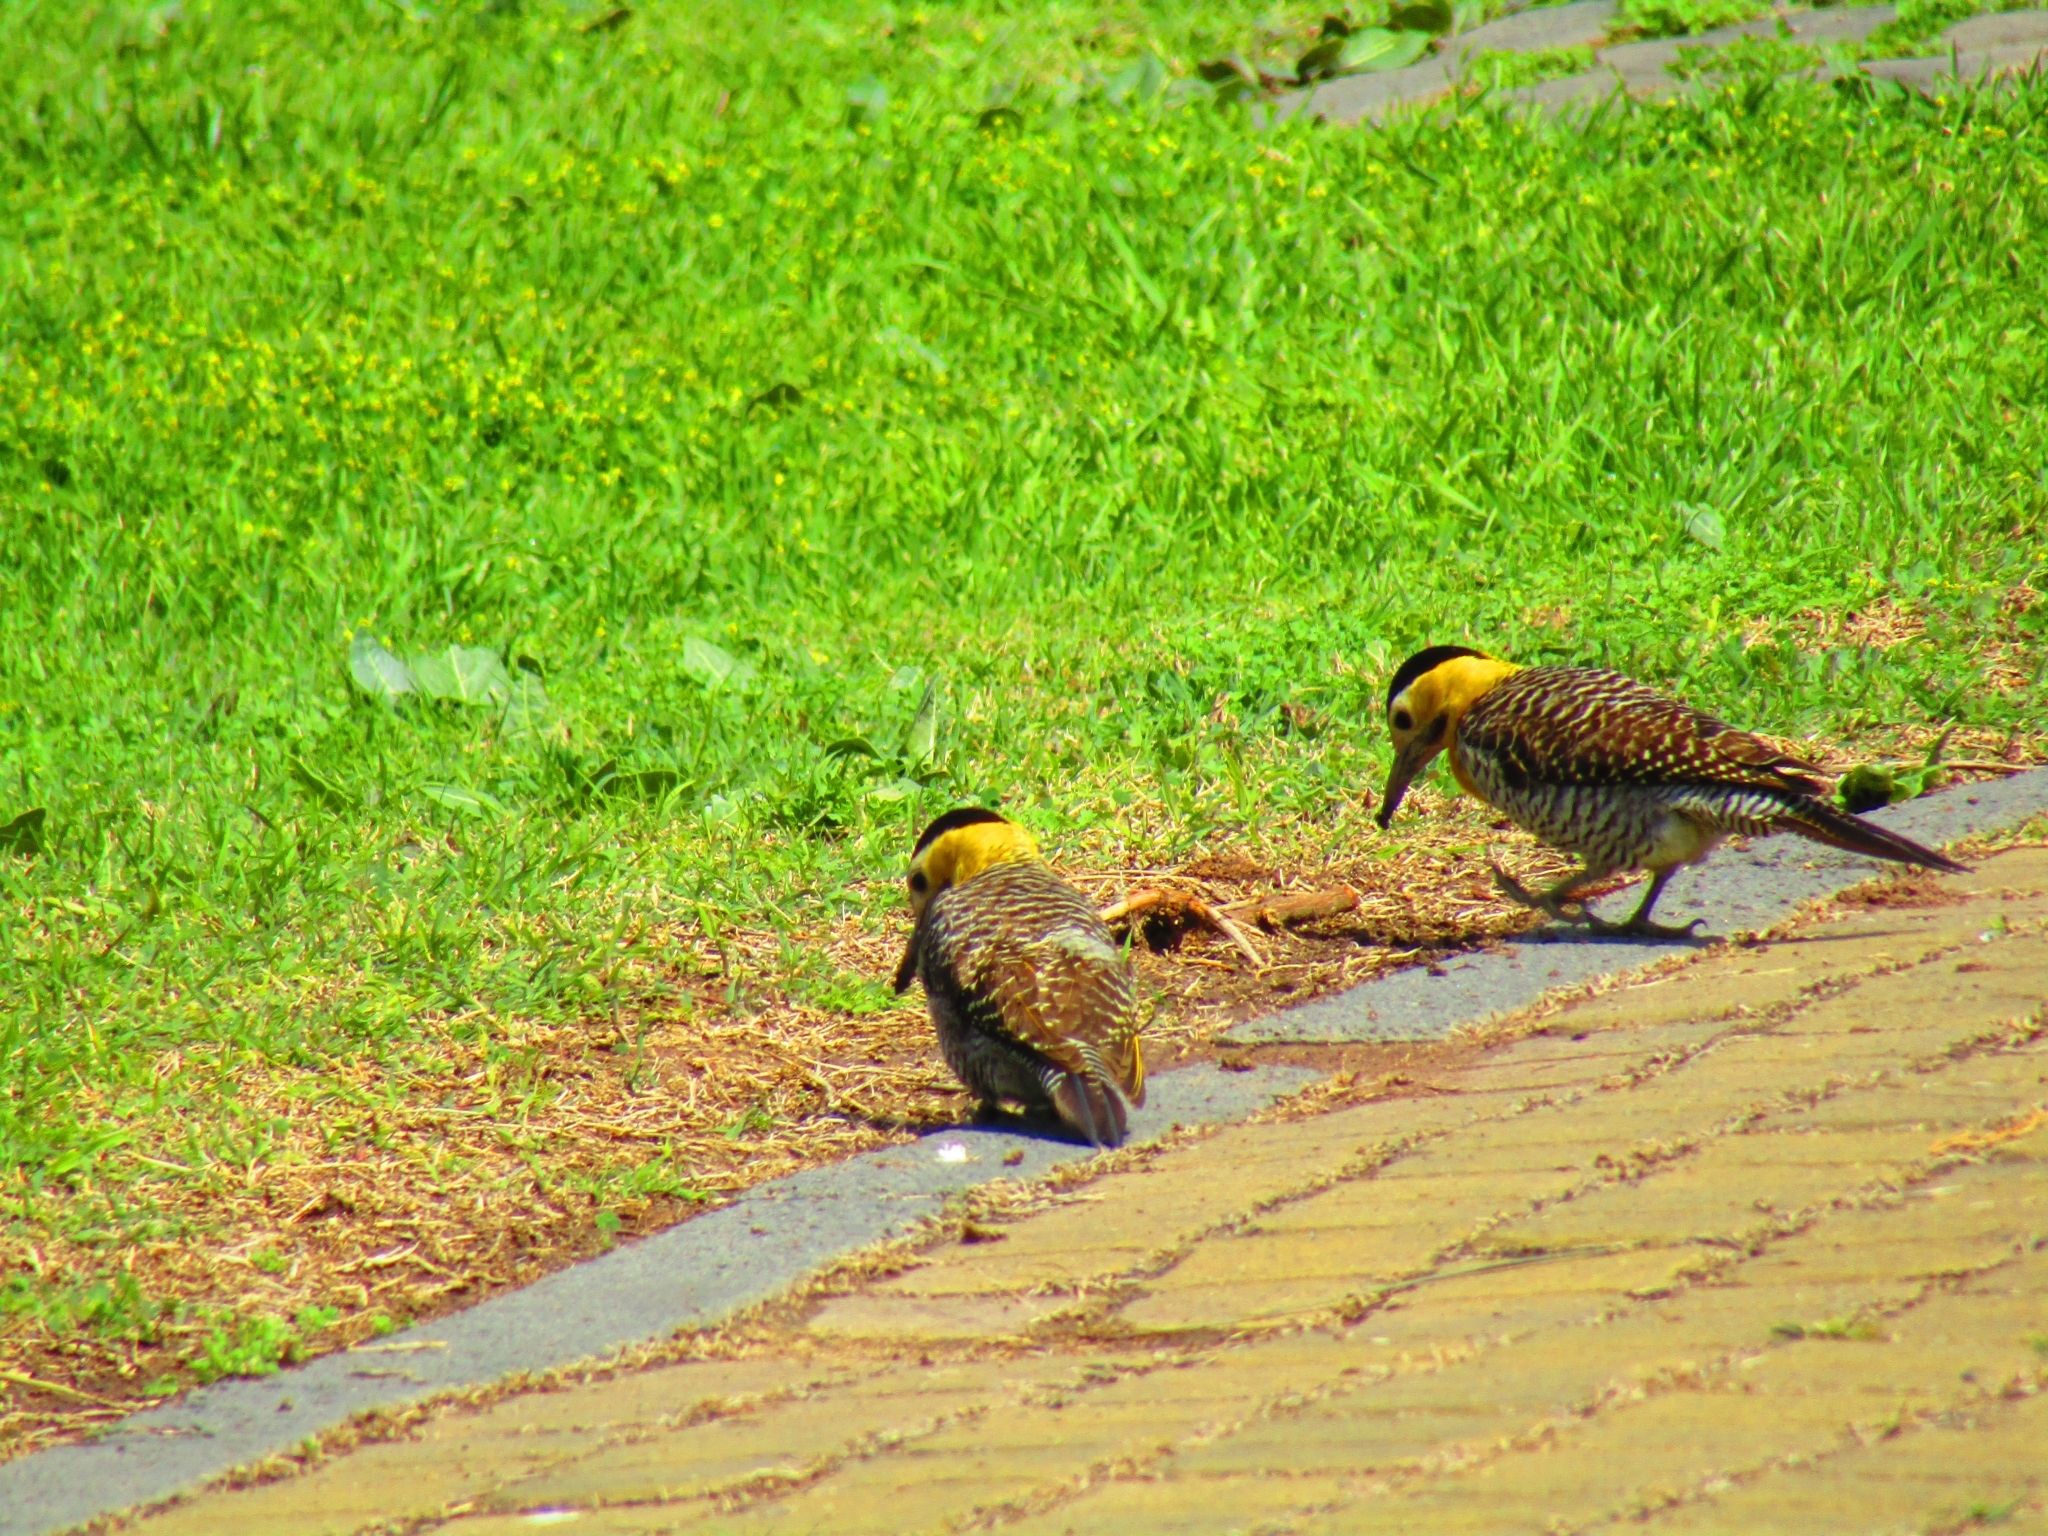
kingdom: Animalia
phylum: Chordata
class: Aves
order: Piciformes
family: Picidae
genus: Colaptes
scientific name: Colaptes campestris
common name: Campo flicker
